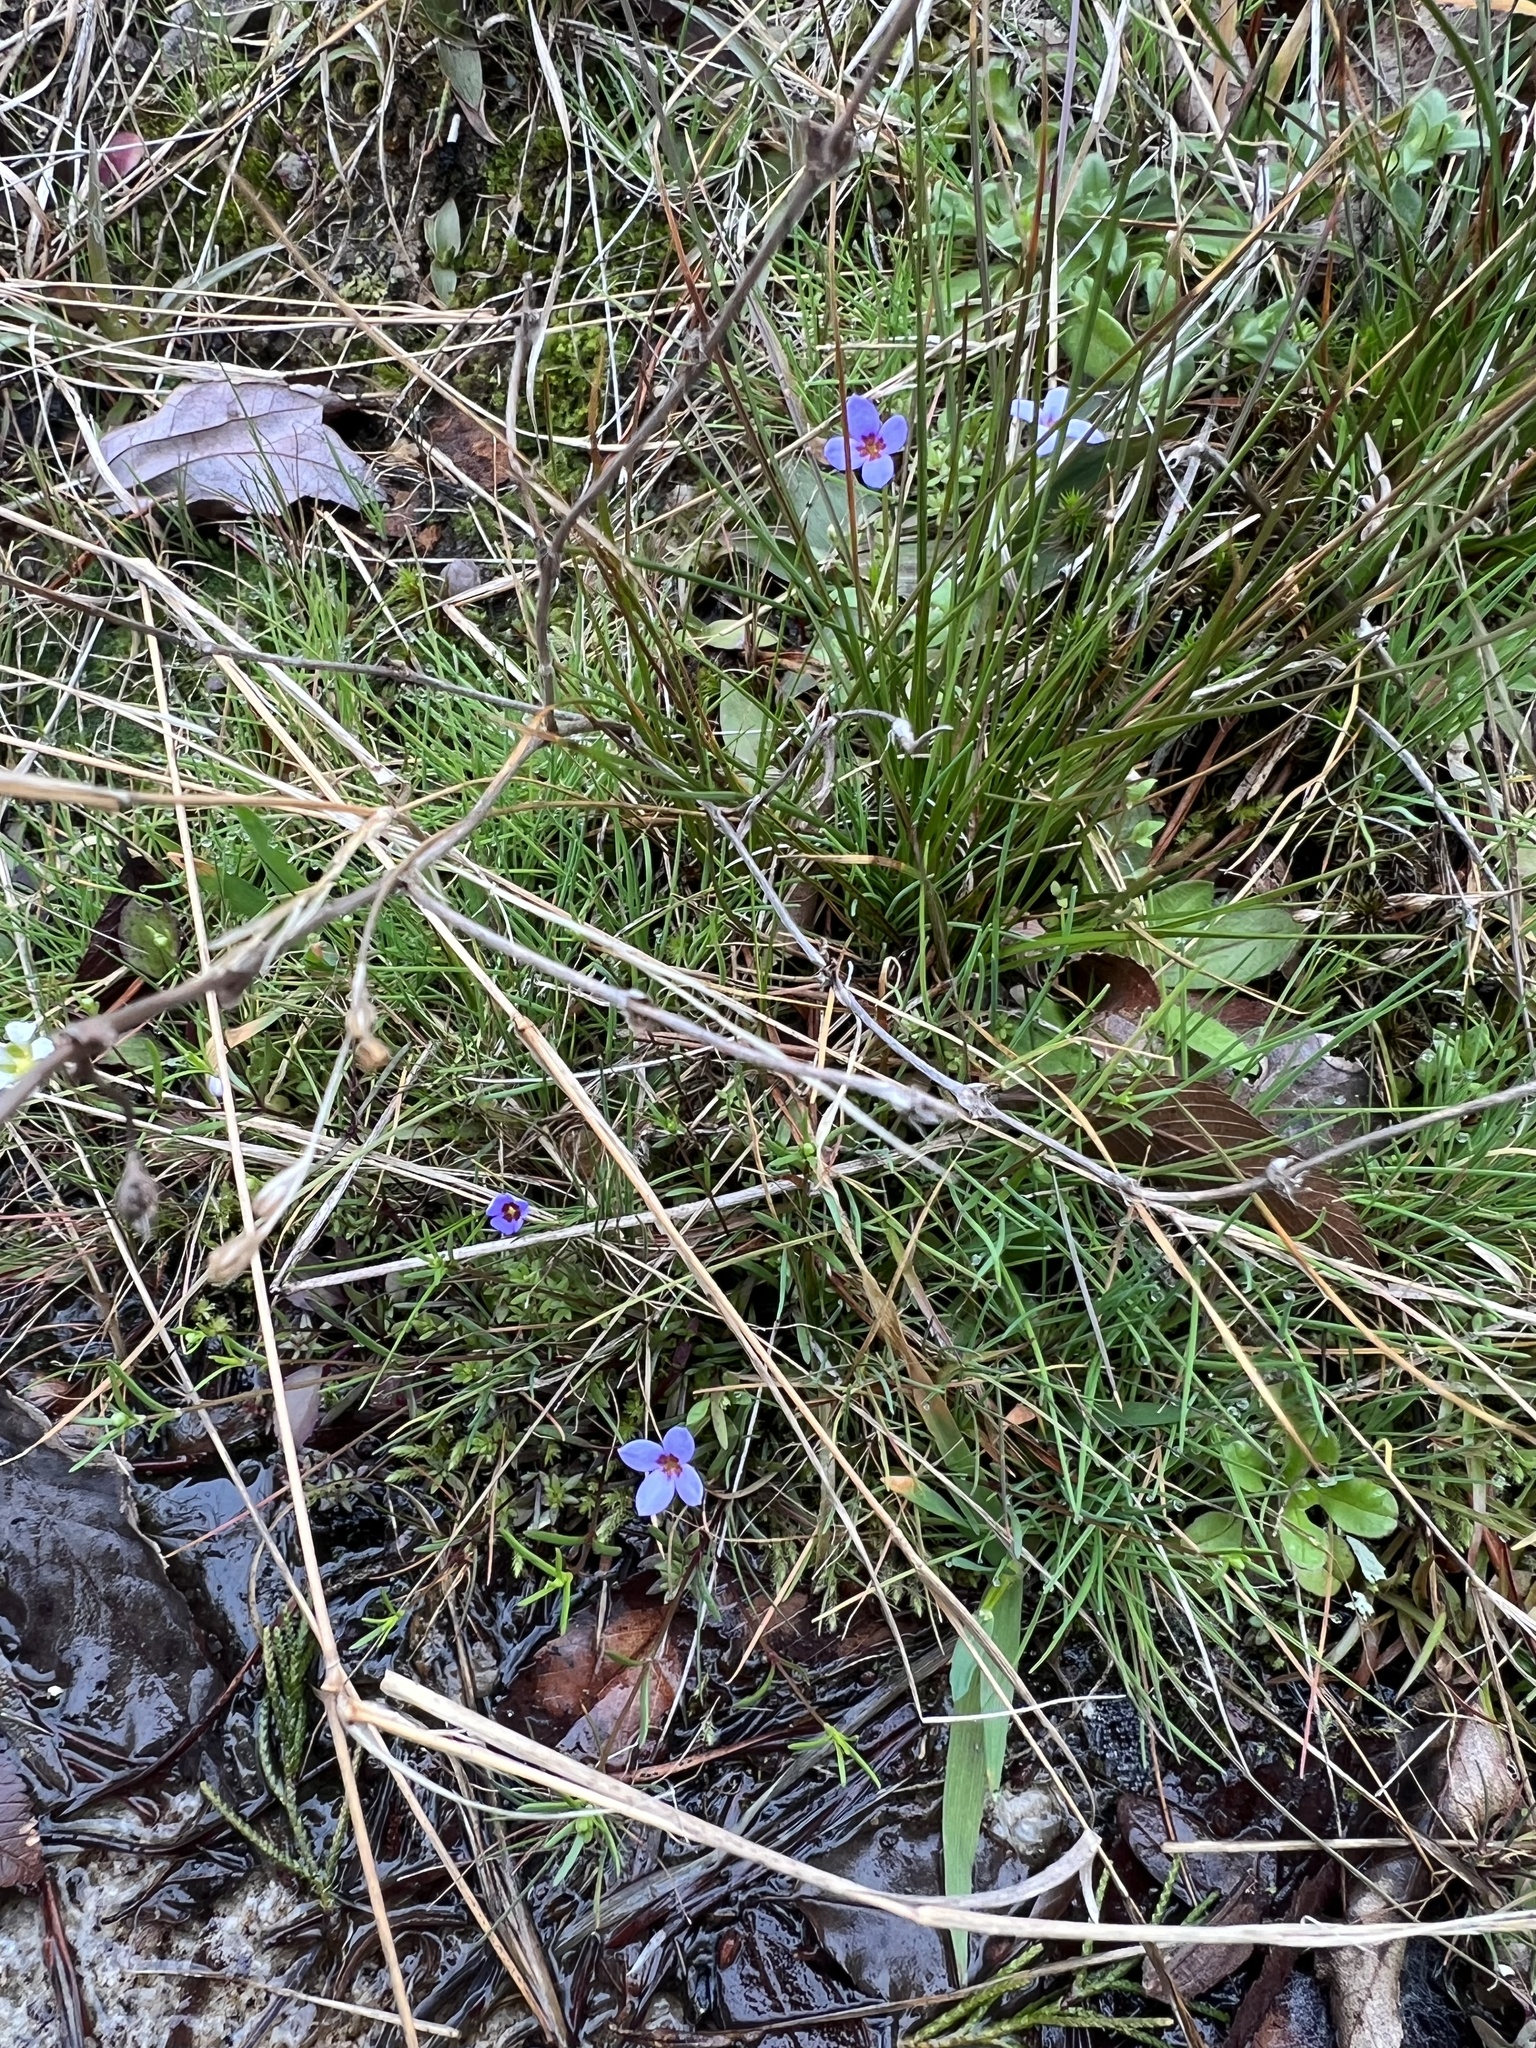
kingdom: Plantae
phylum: Tracheophyta
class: Magnoliopsida
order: Gentianales
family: Rubiaceae
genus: Houstonia
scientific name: Houstonia pusilla
